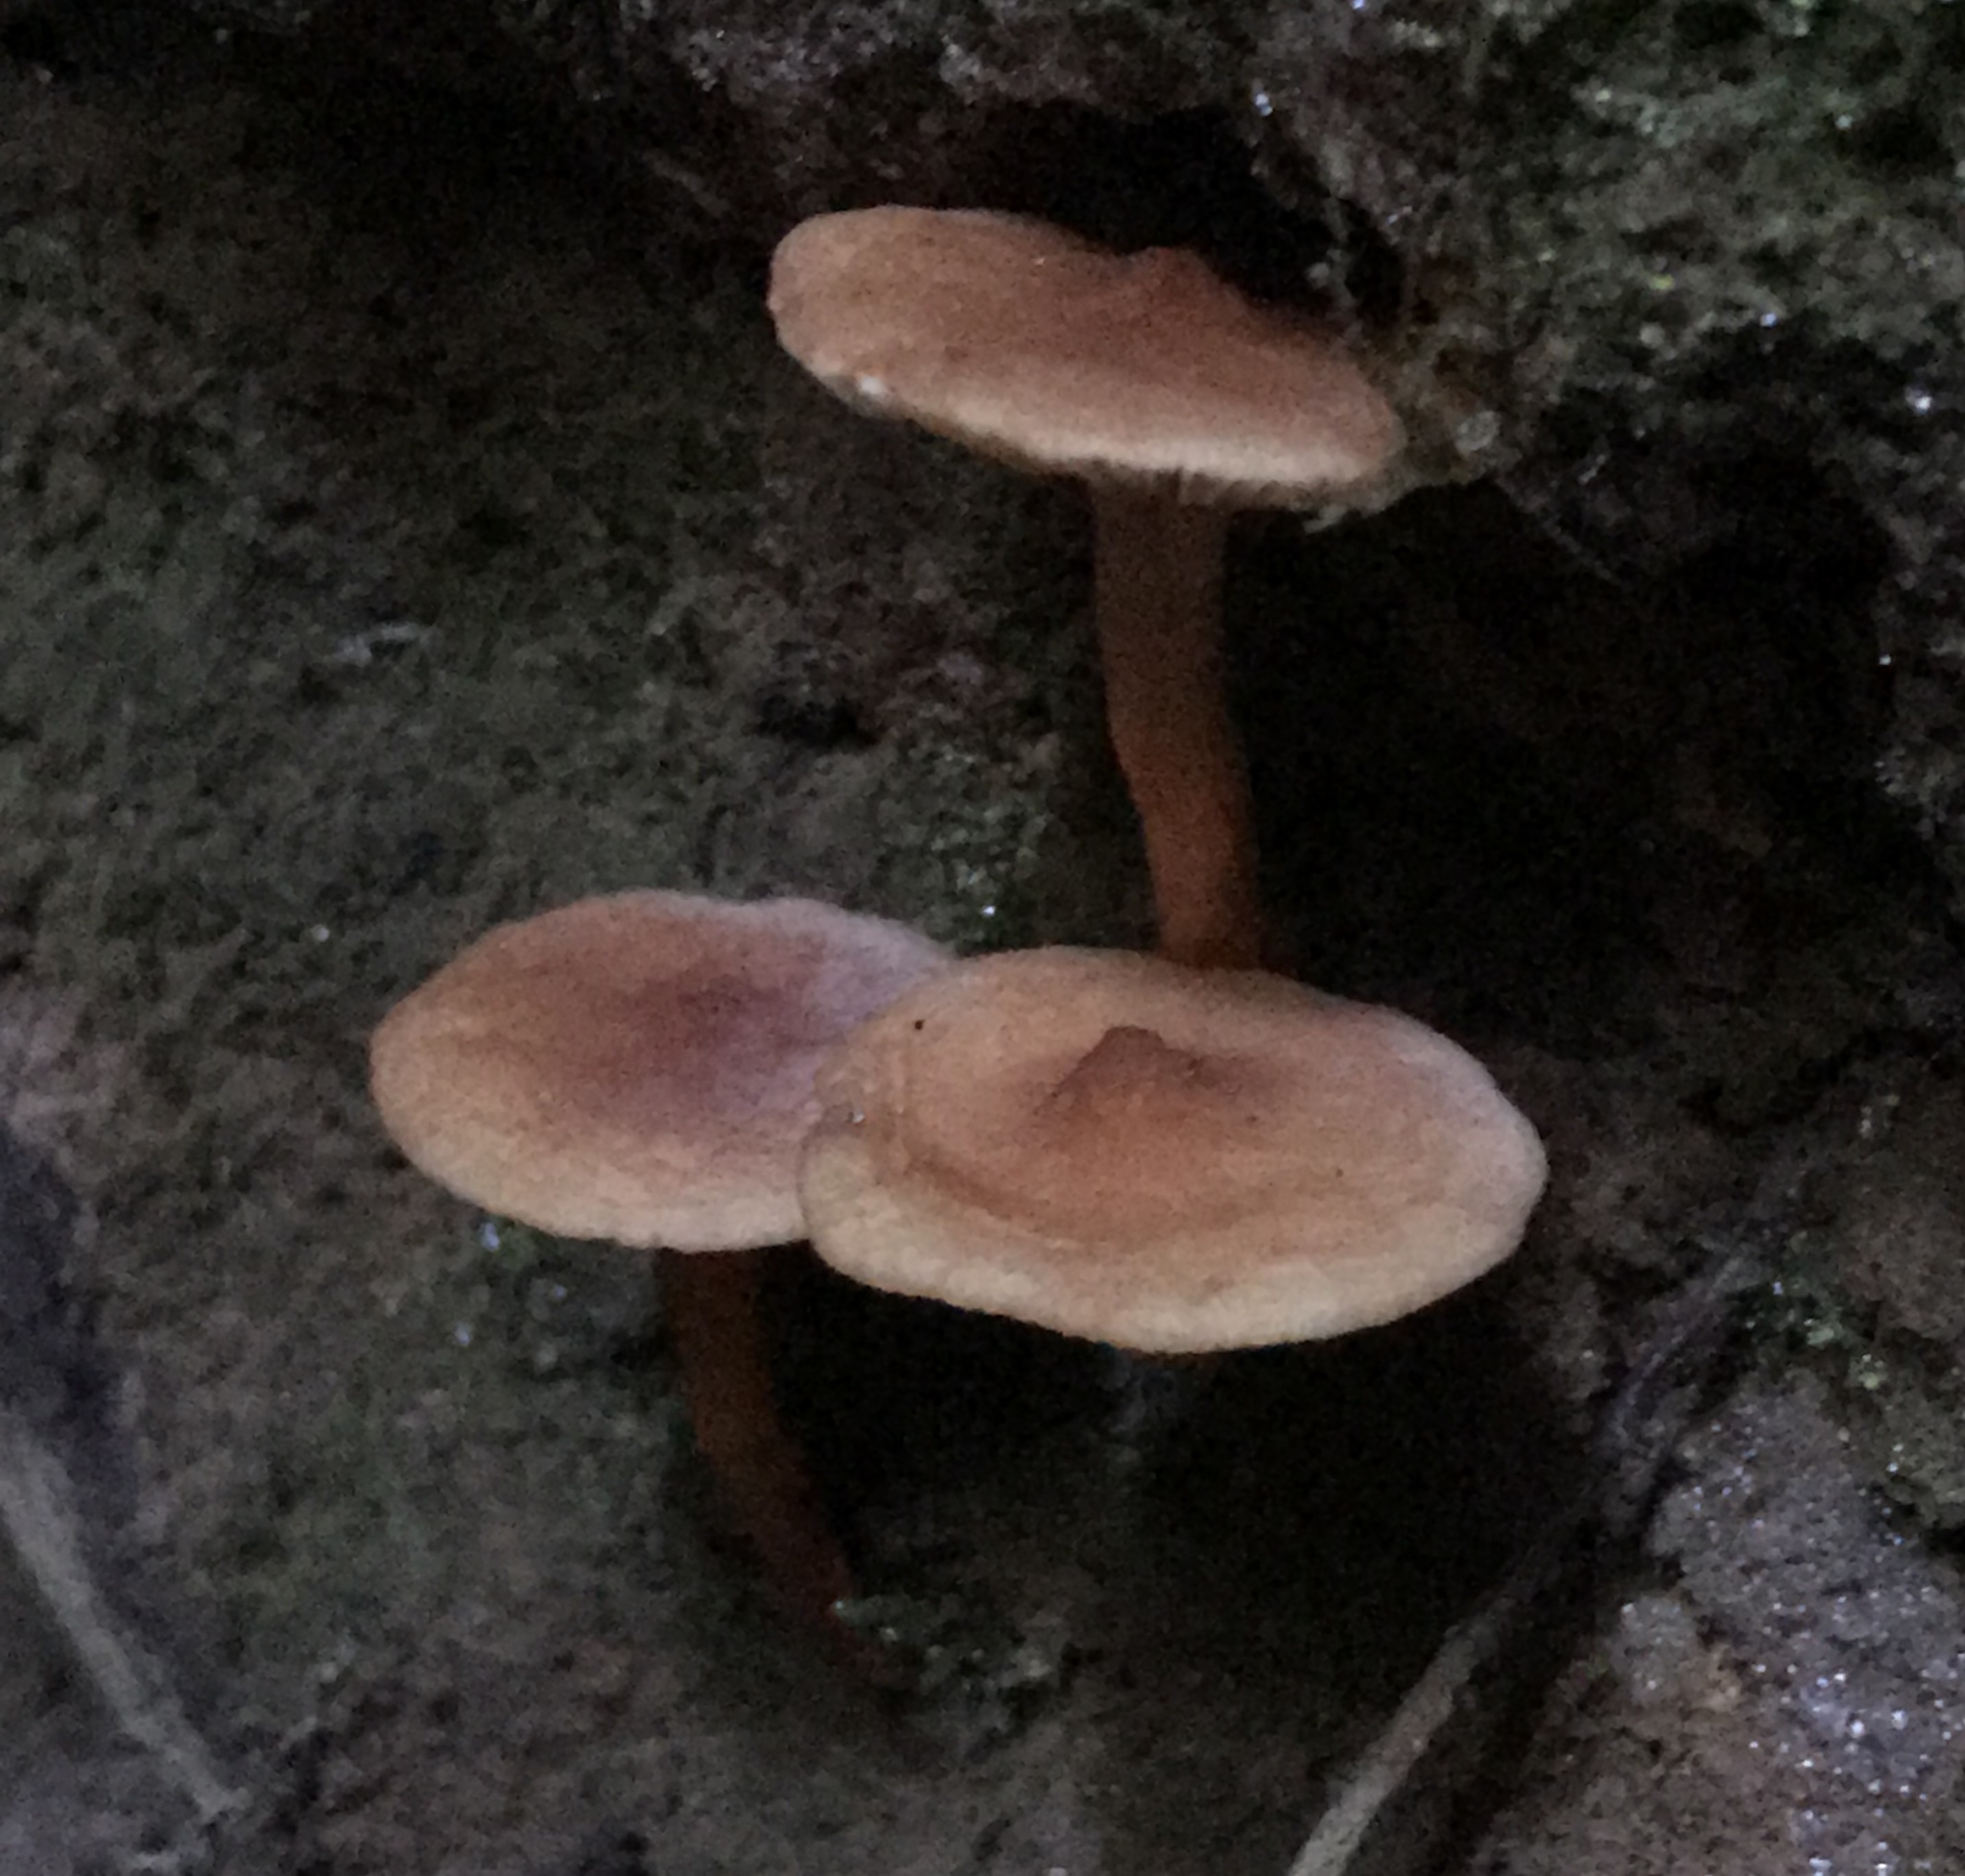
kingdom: Fungi
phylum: Basidiomycota
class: Agaricomycetes
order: Russulales
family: Russulaceae
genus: Lactarius
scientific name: Lactarius rubidus
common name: Candy cap
